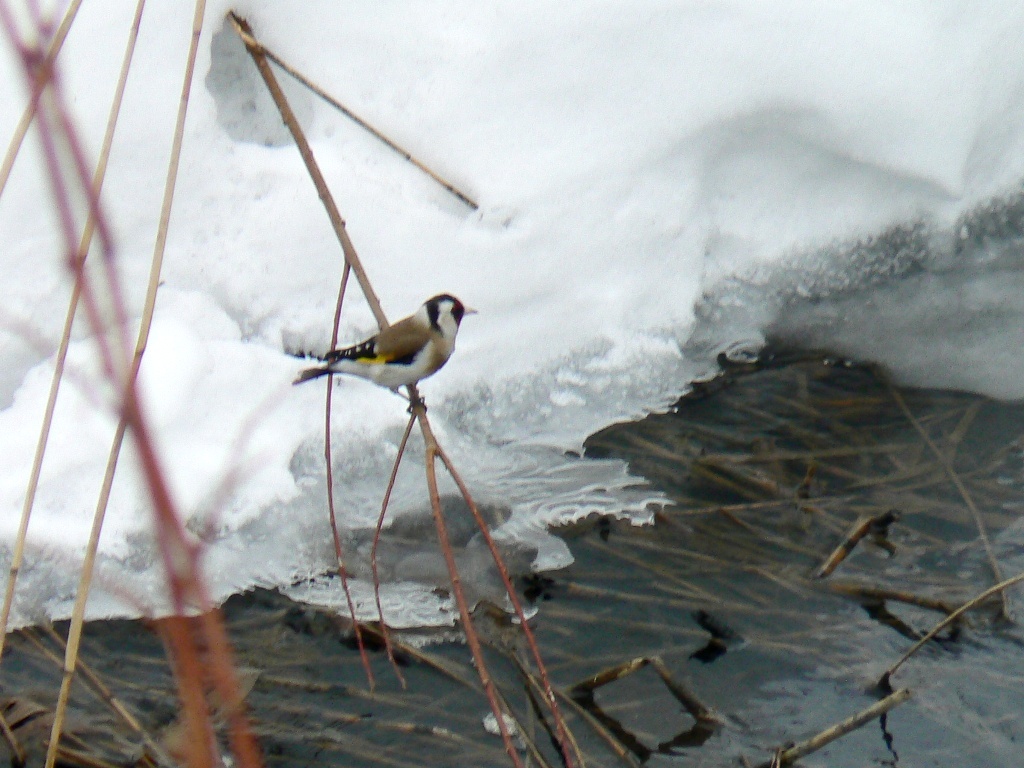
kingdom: Animalia
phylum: Chordata
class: Aves
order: Passeriformes
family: Fringillidae
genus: Carduelis
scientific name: Carduelis carduelis
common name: European goldfinch
